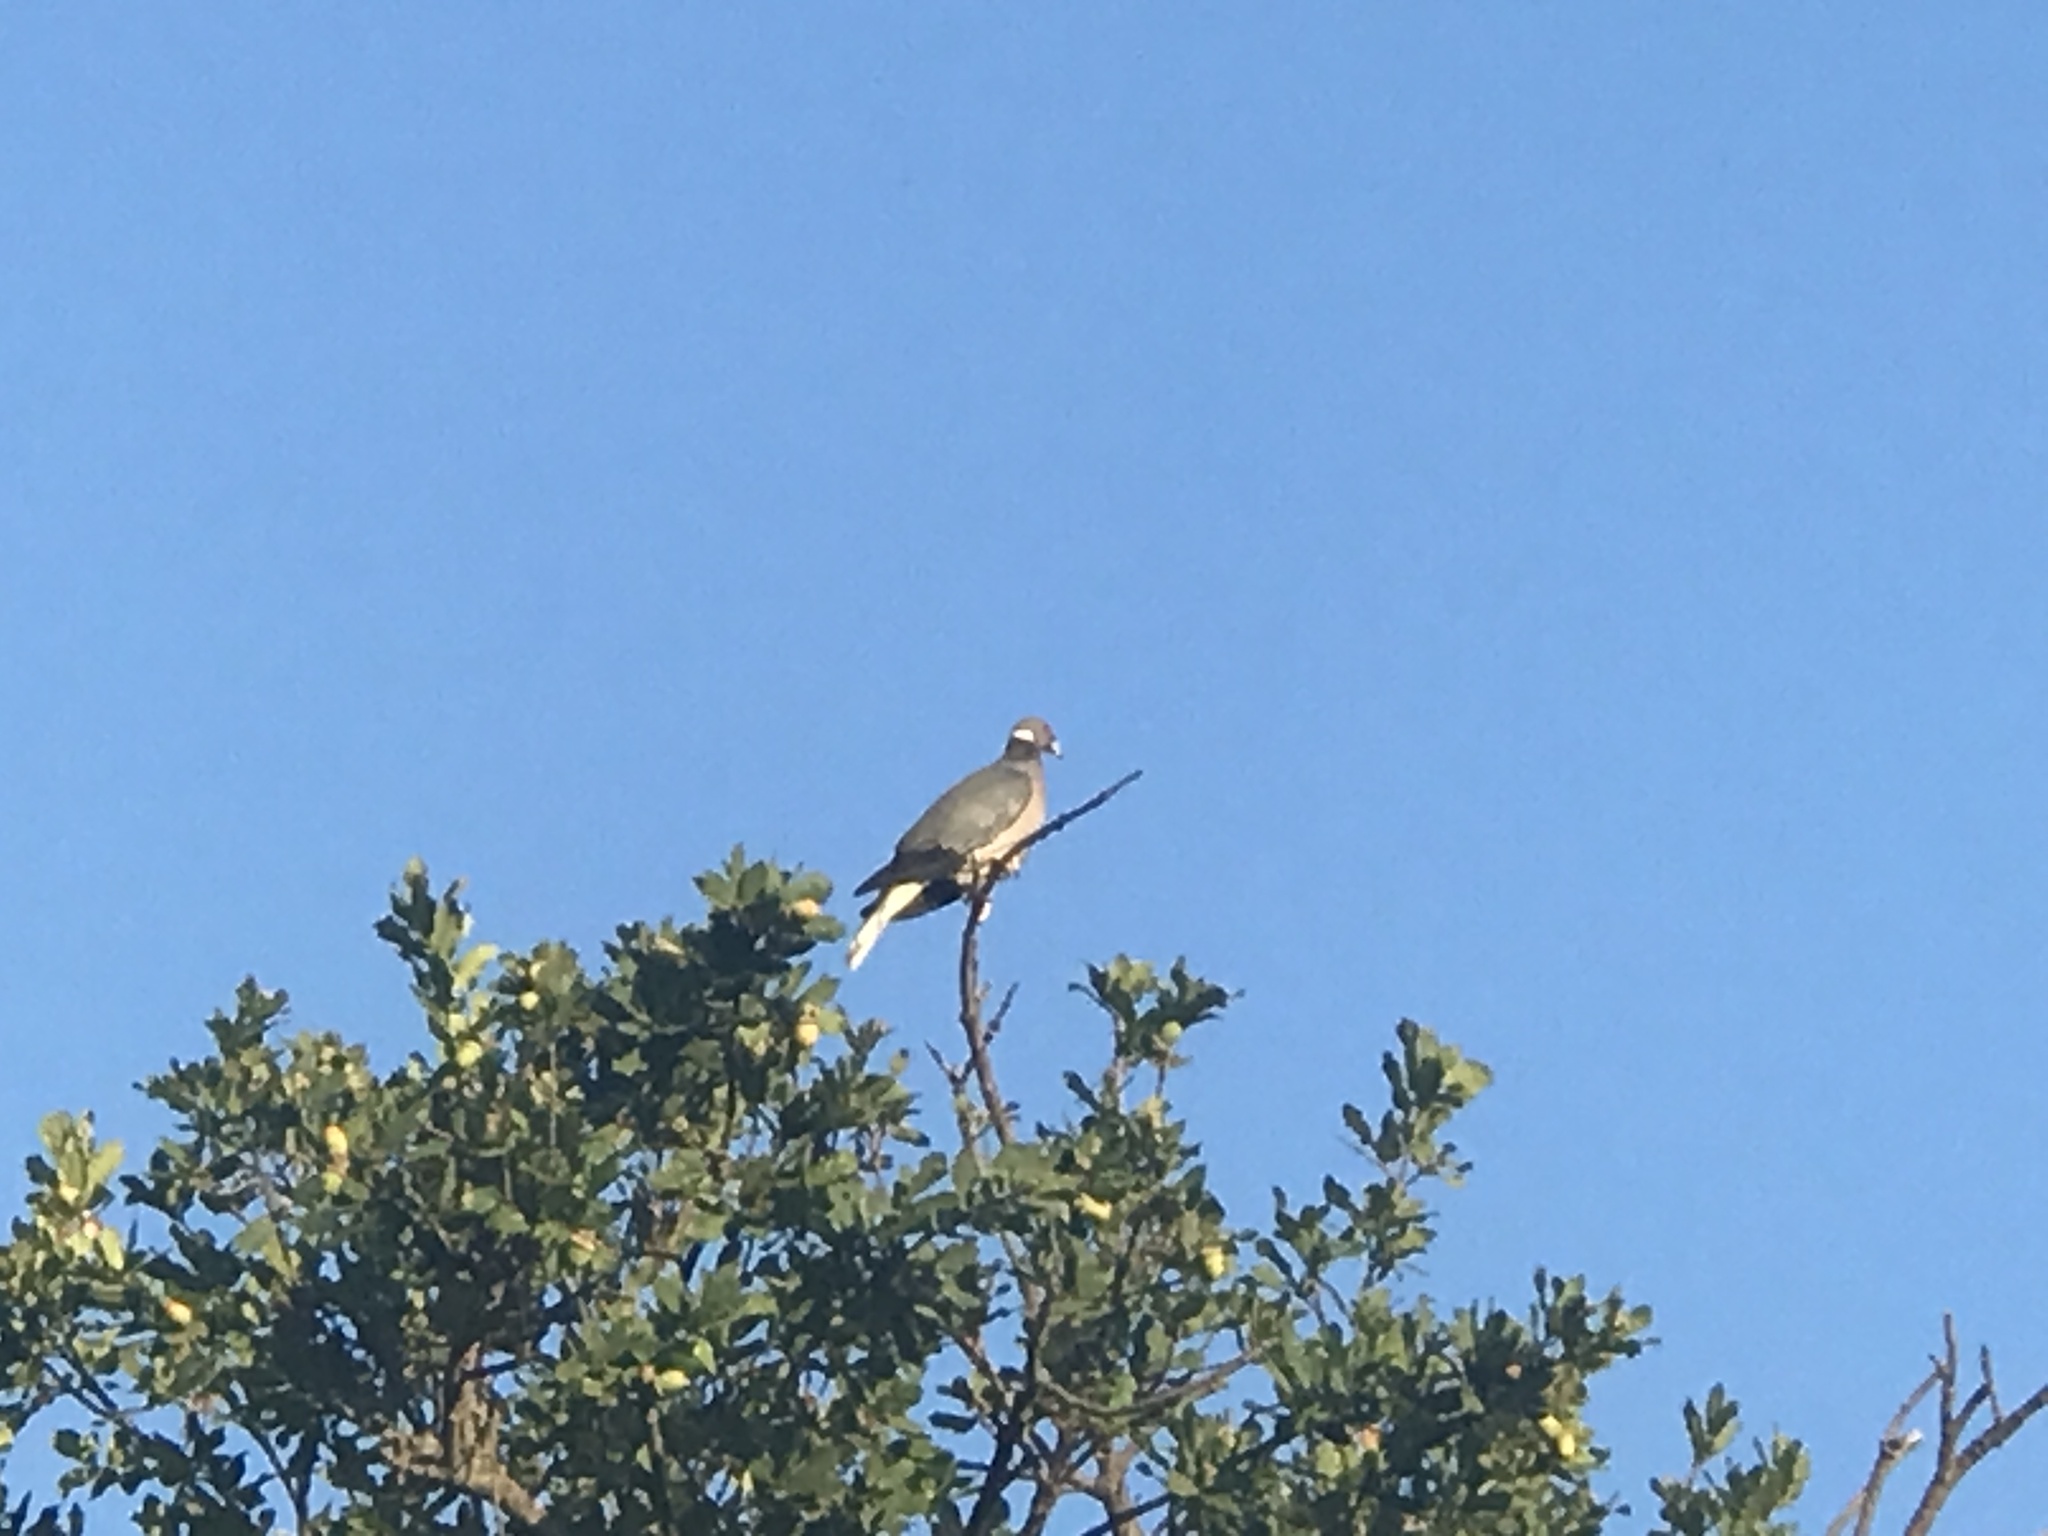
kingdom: Animalia
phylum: Chordata
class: Aves
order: Columbiformes
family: Columbidae
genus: Patagioenas
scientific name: Patagioenas fasciata
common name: Band-tailed pigeon
